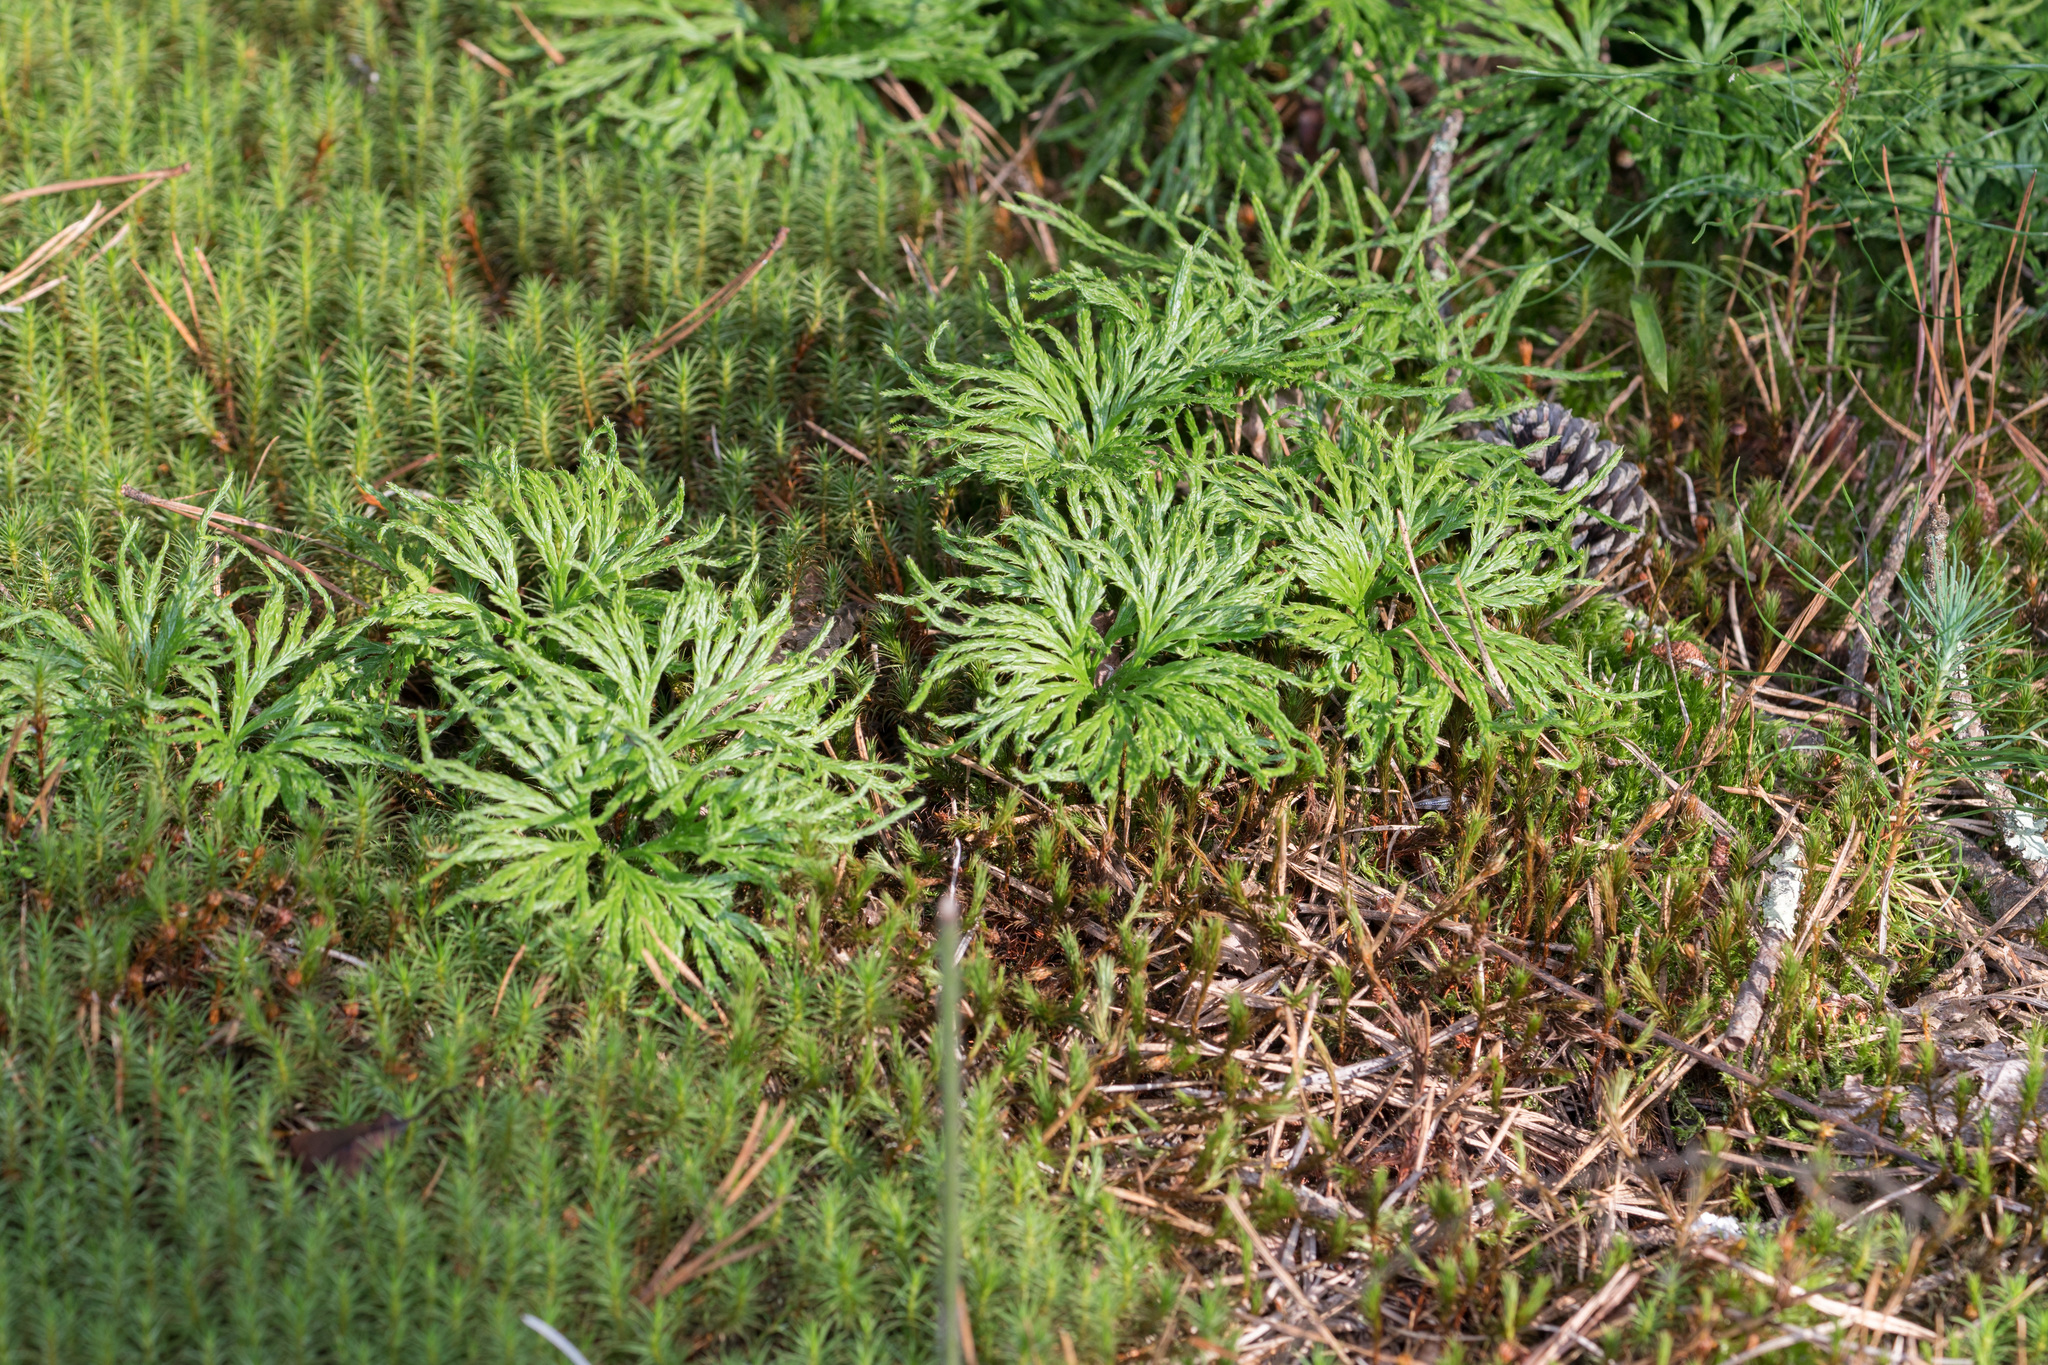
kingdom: Plantae
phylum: Tracheophyta
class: Lycopodiopsida
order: Lycopodiales
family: Lycopodiaceae
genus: Diphasiastrum
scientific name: Diphasiastrum digitatum
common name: Southern running-pine
